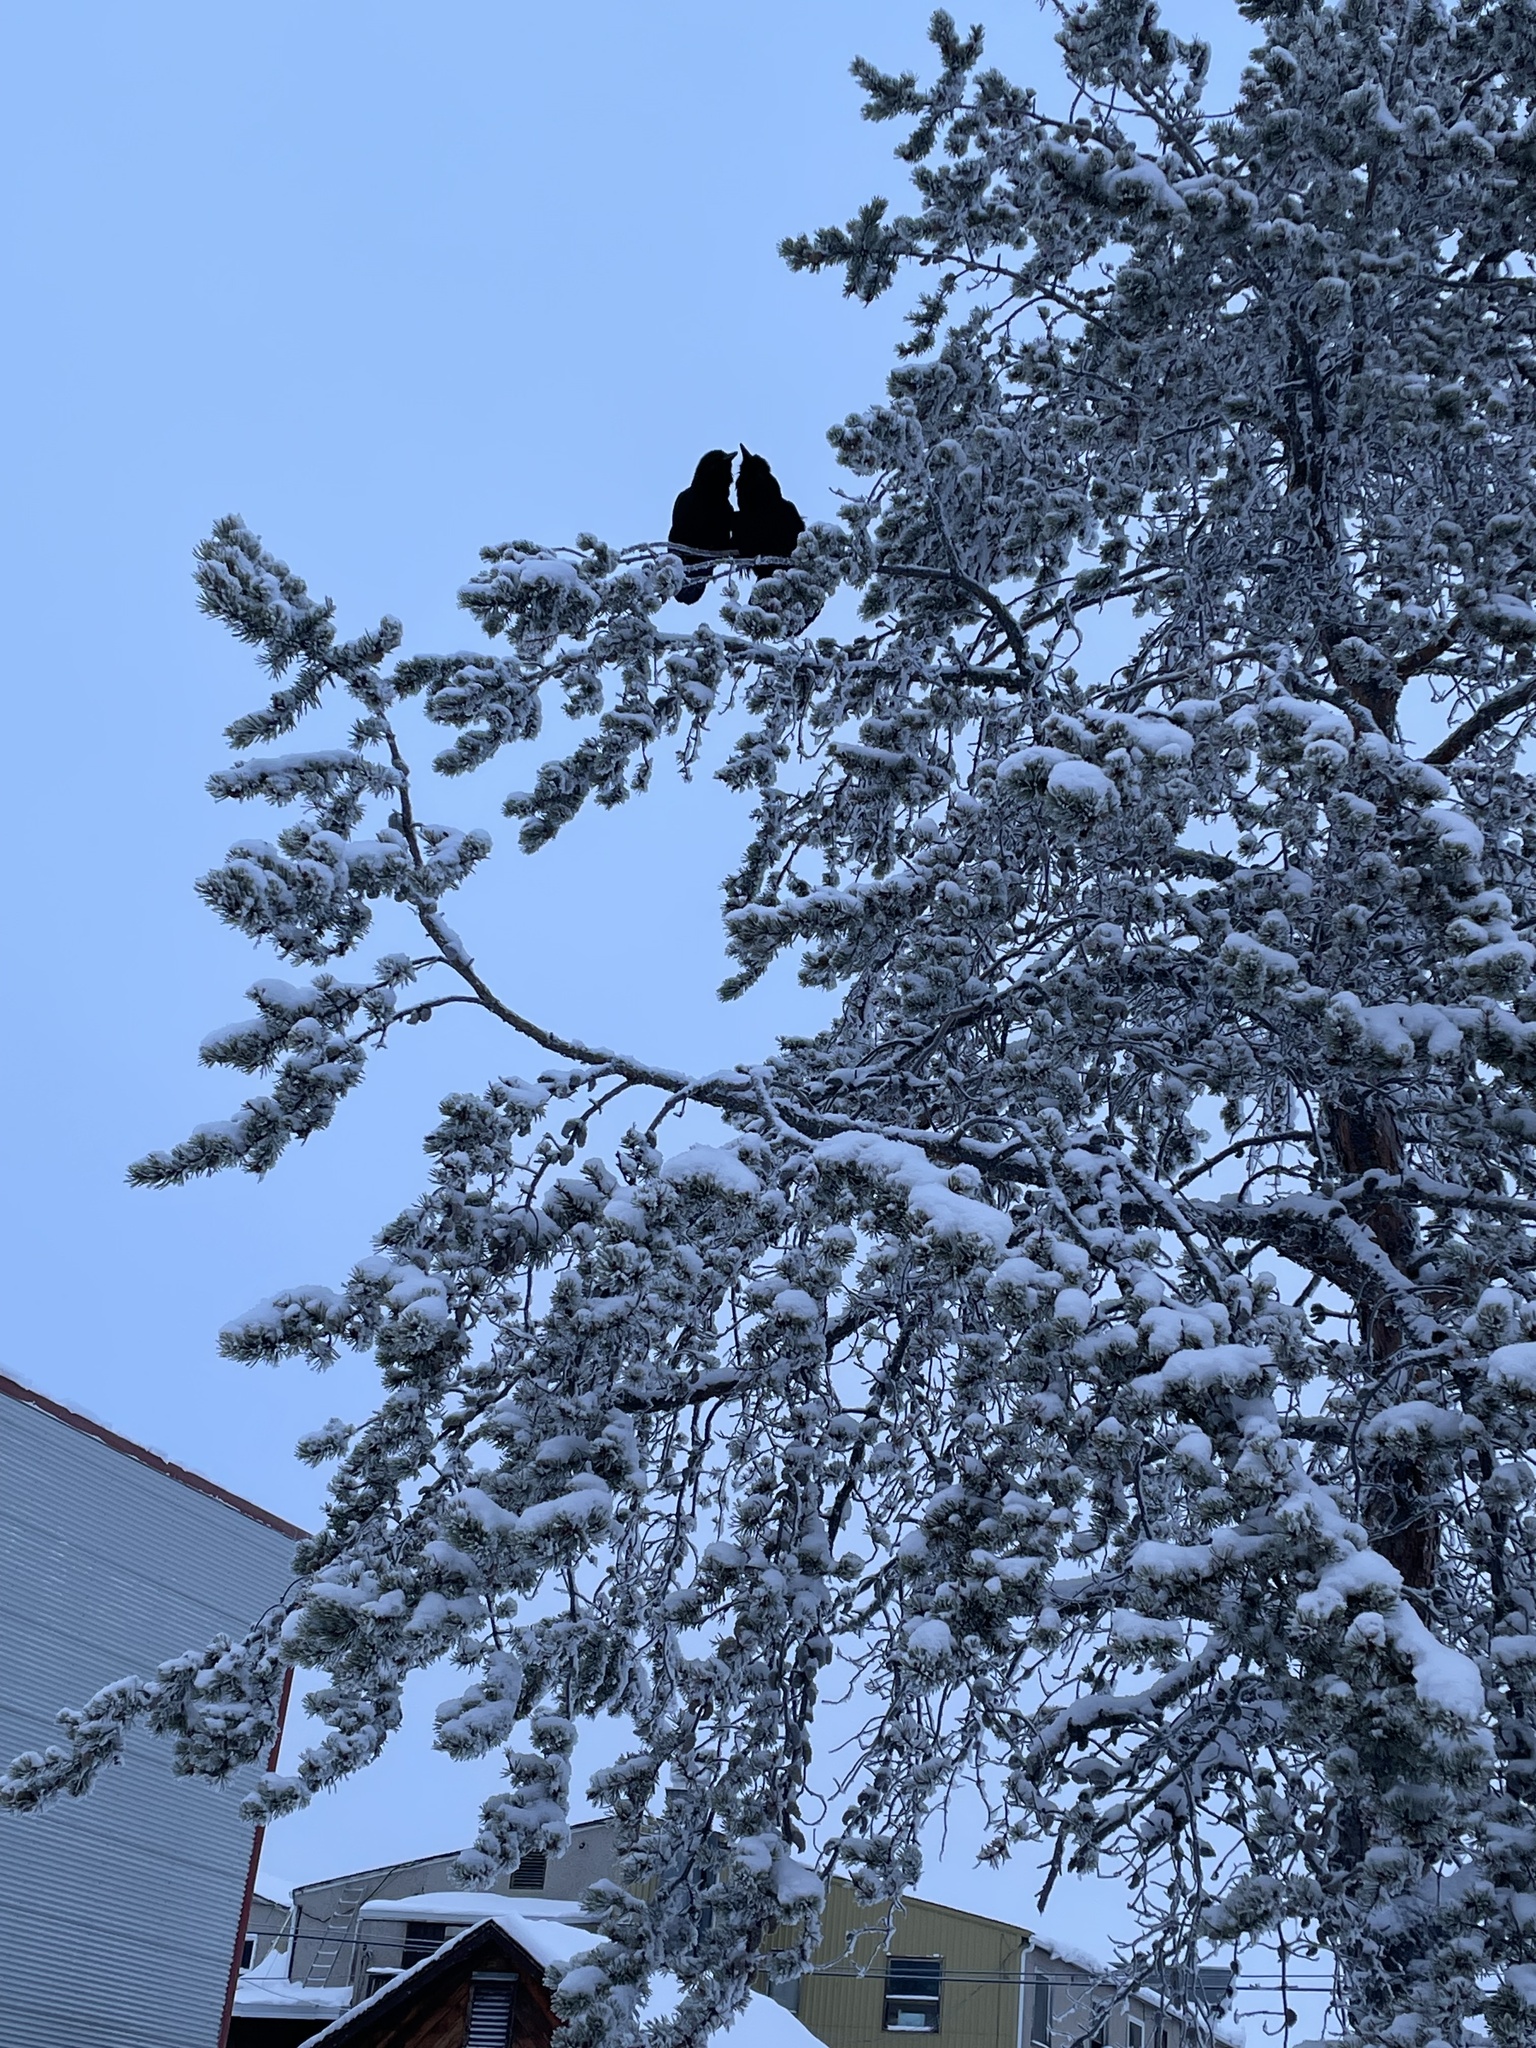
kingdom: Animalia
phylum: Chordata
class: Aves
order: Passeriformes
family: Corvidae
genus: Corvus
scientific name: Corvus corax
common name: Common raven
